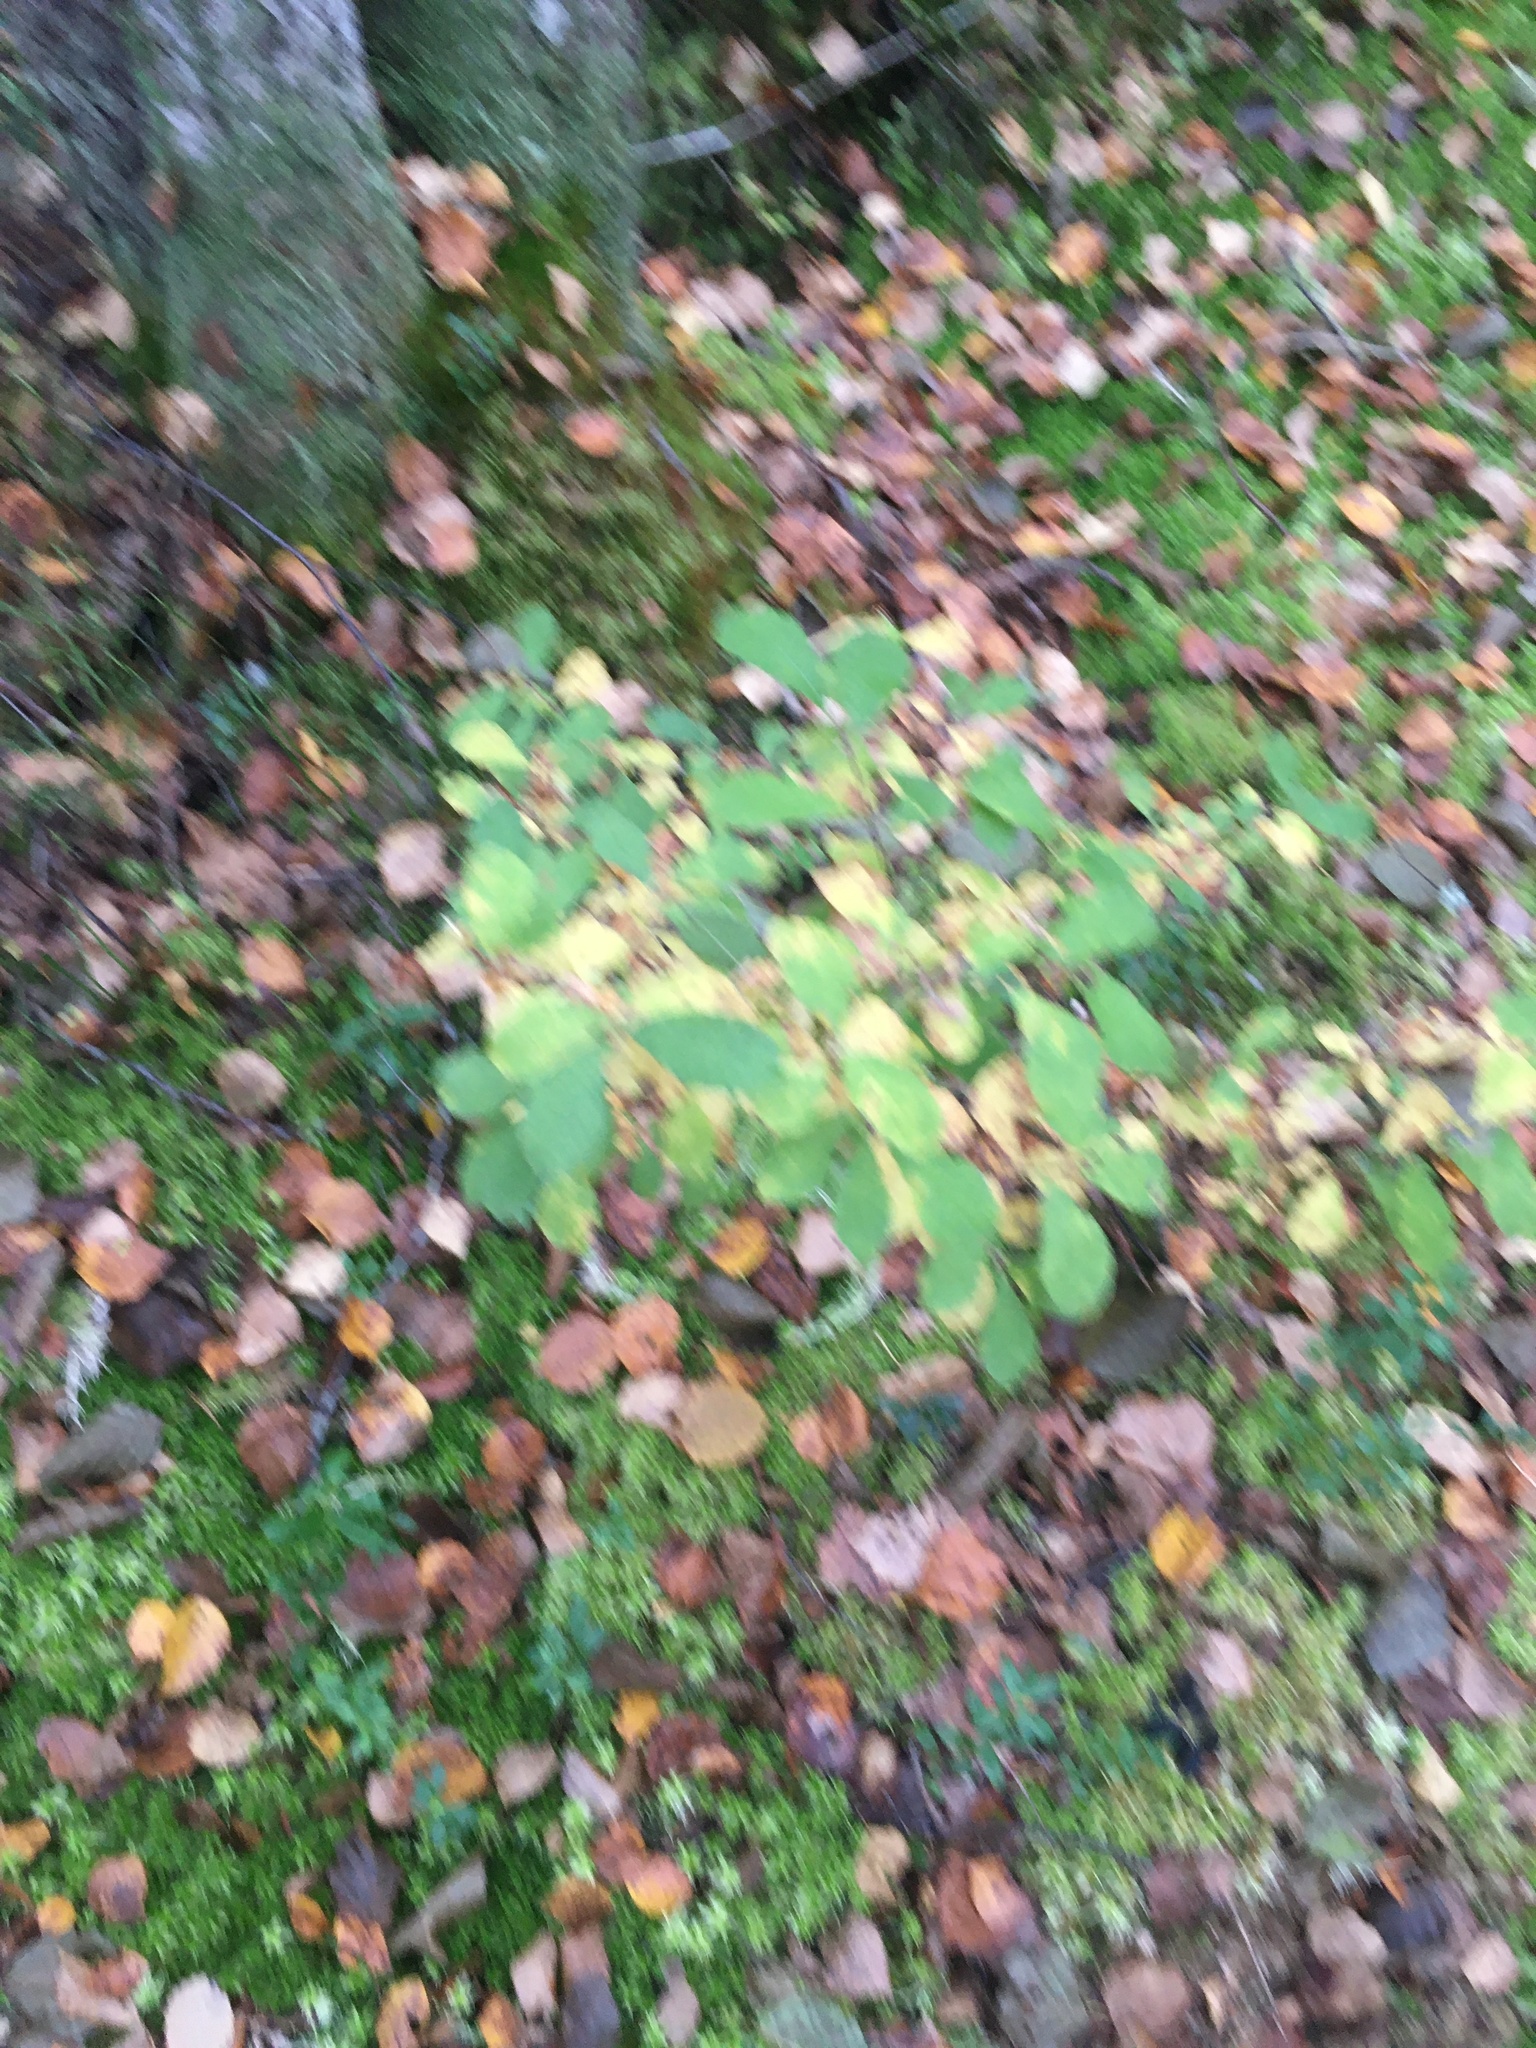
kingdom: Plantae
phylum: Tracheophyta
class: Magnoliopsida
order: Malpighiales
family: Salicaceae
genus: Salix
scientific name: Salix aurita
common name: Eared willow
